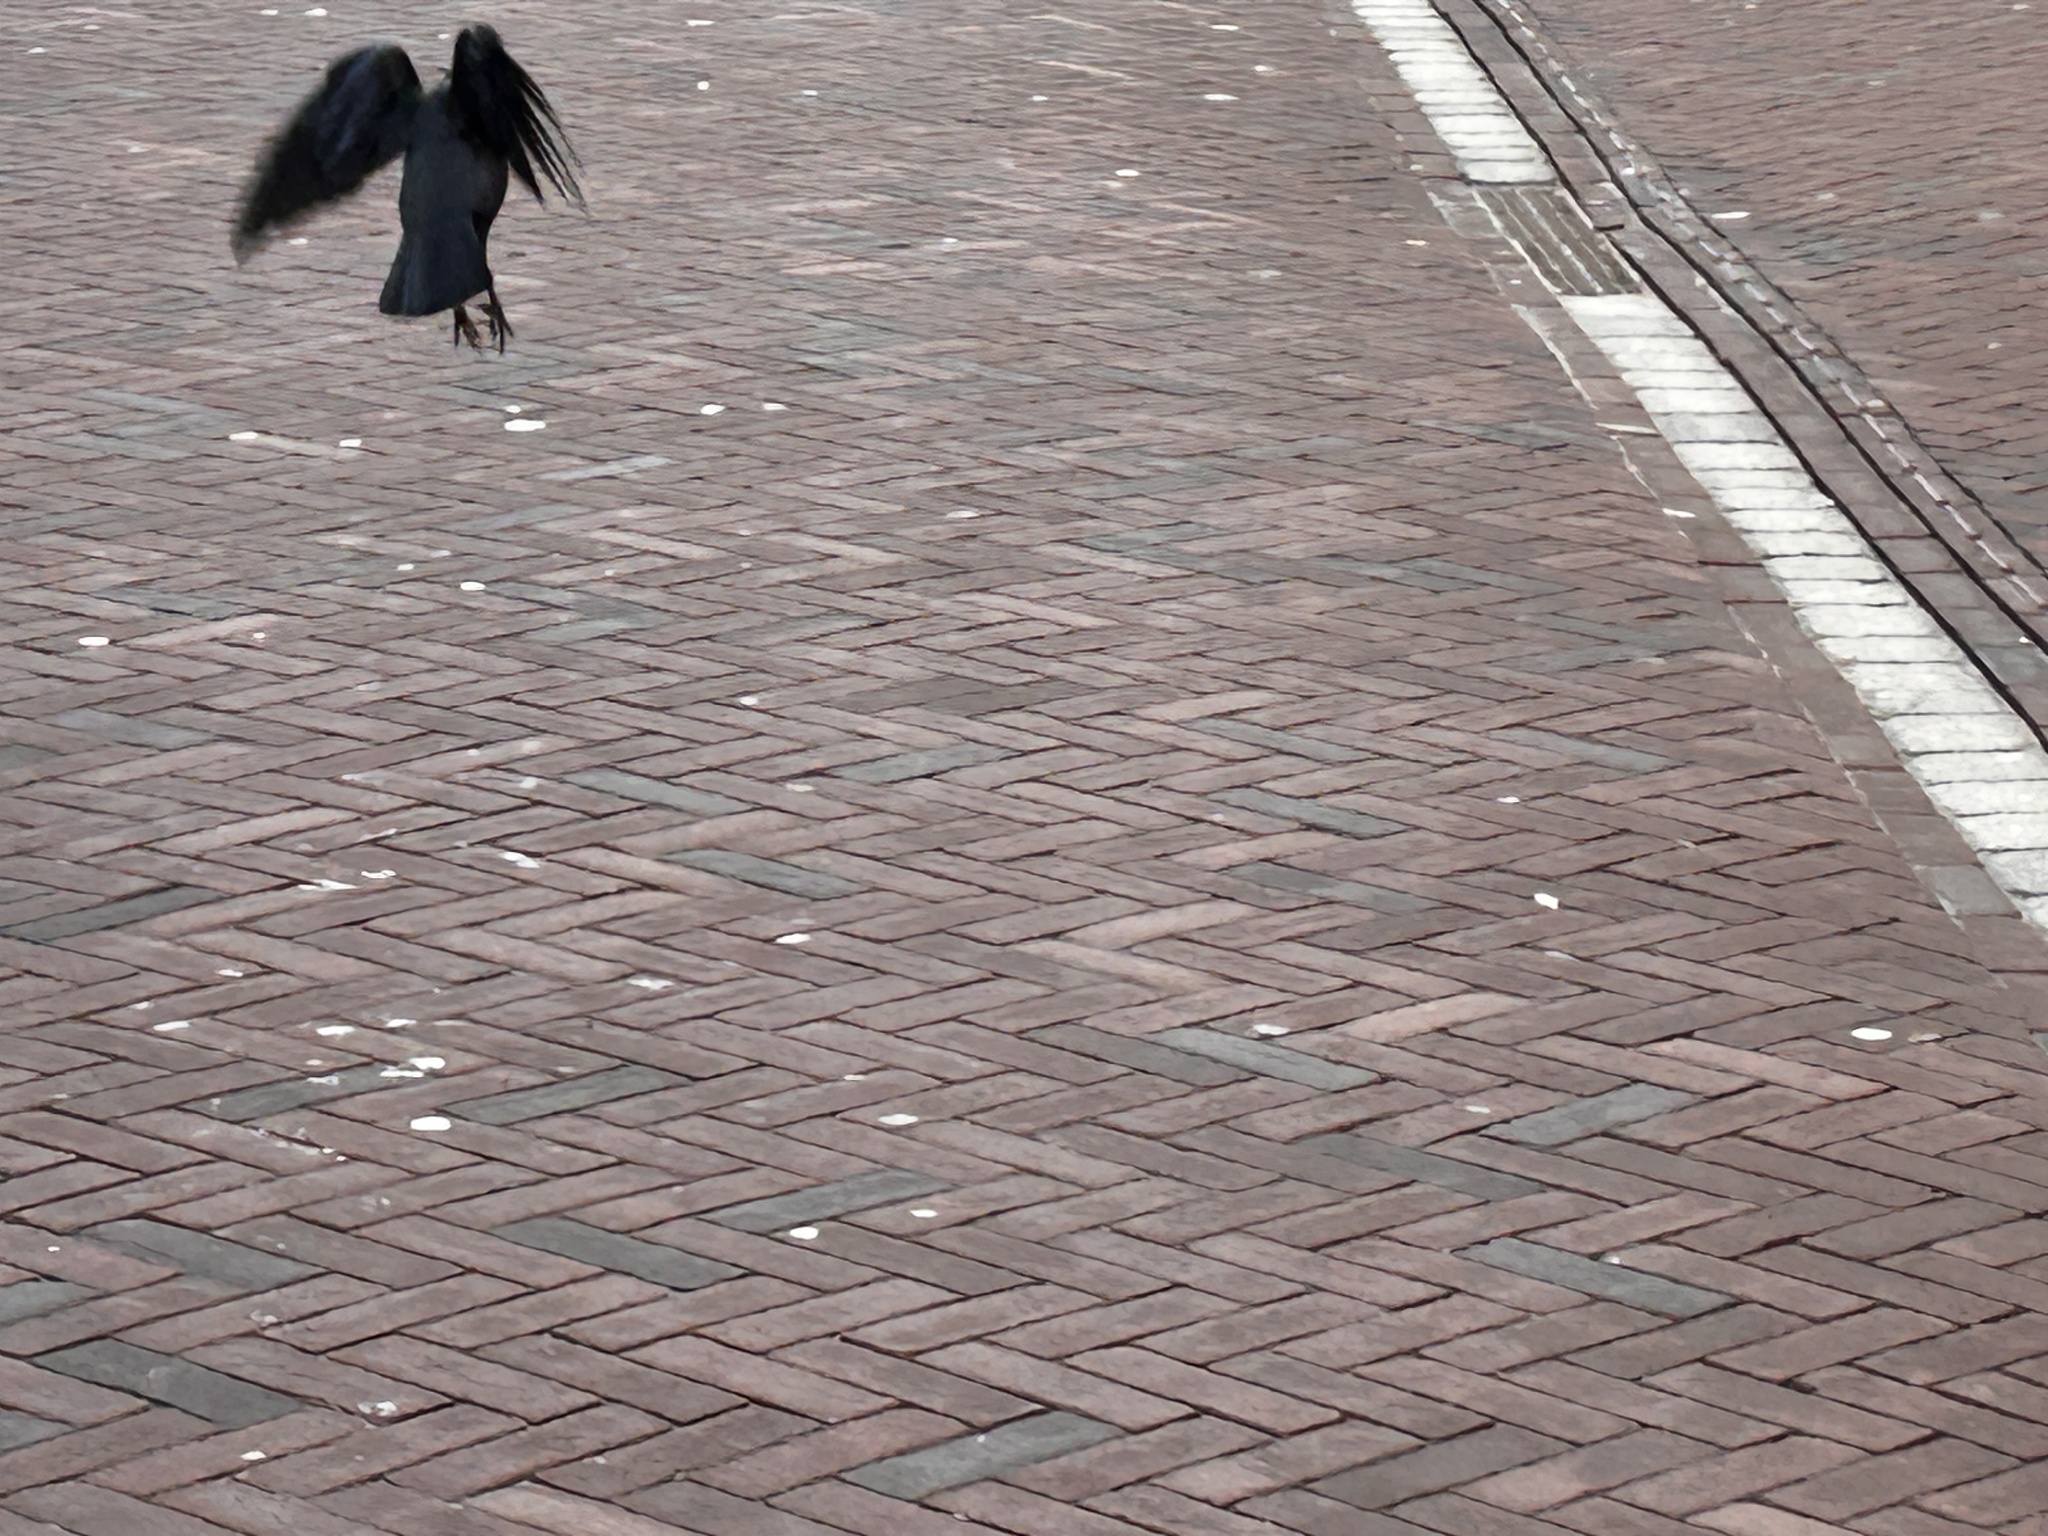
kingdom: Animalia
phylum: Chordata
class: Aves
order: Passeriformes
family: Corvidae
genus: Coloeus
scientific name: Coloeus monedula
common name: Western jackdaw
